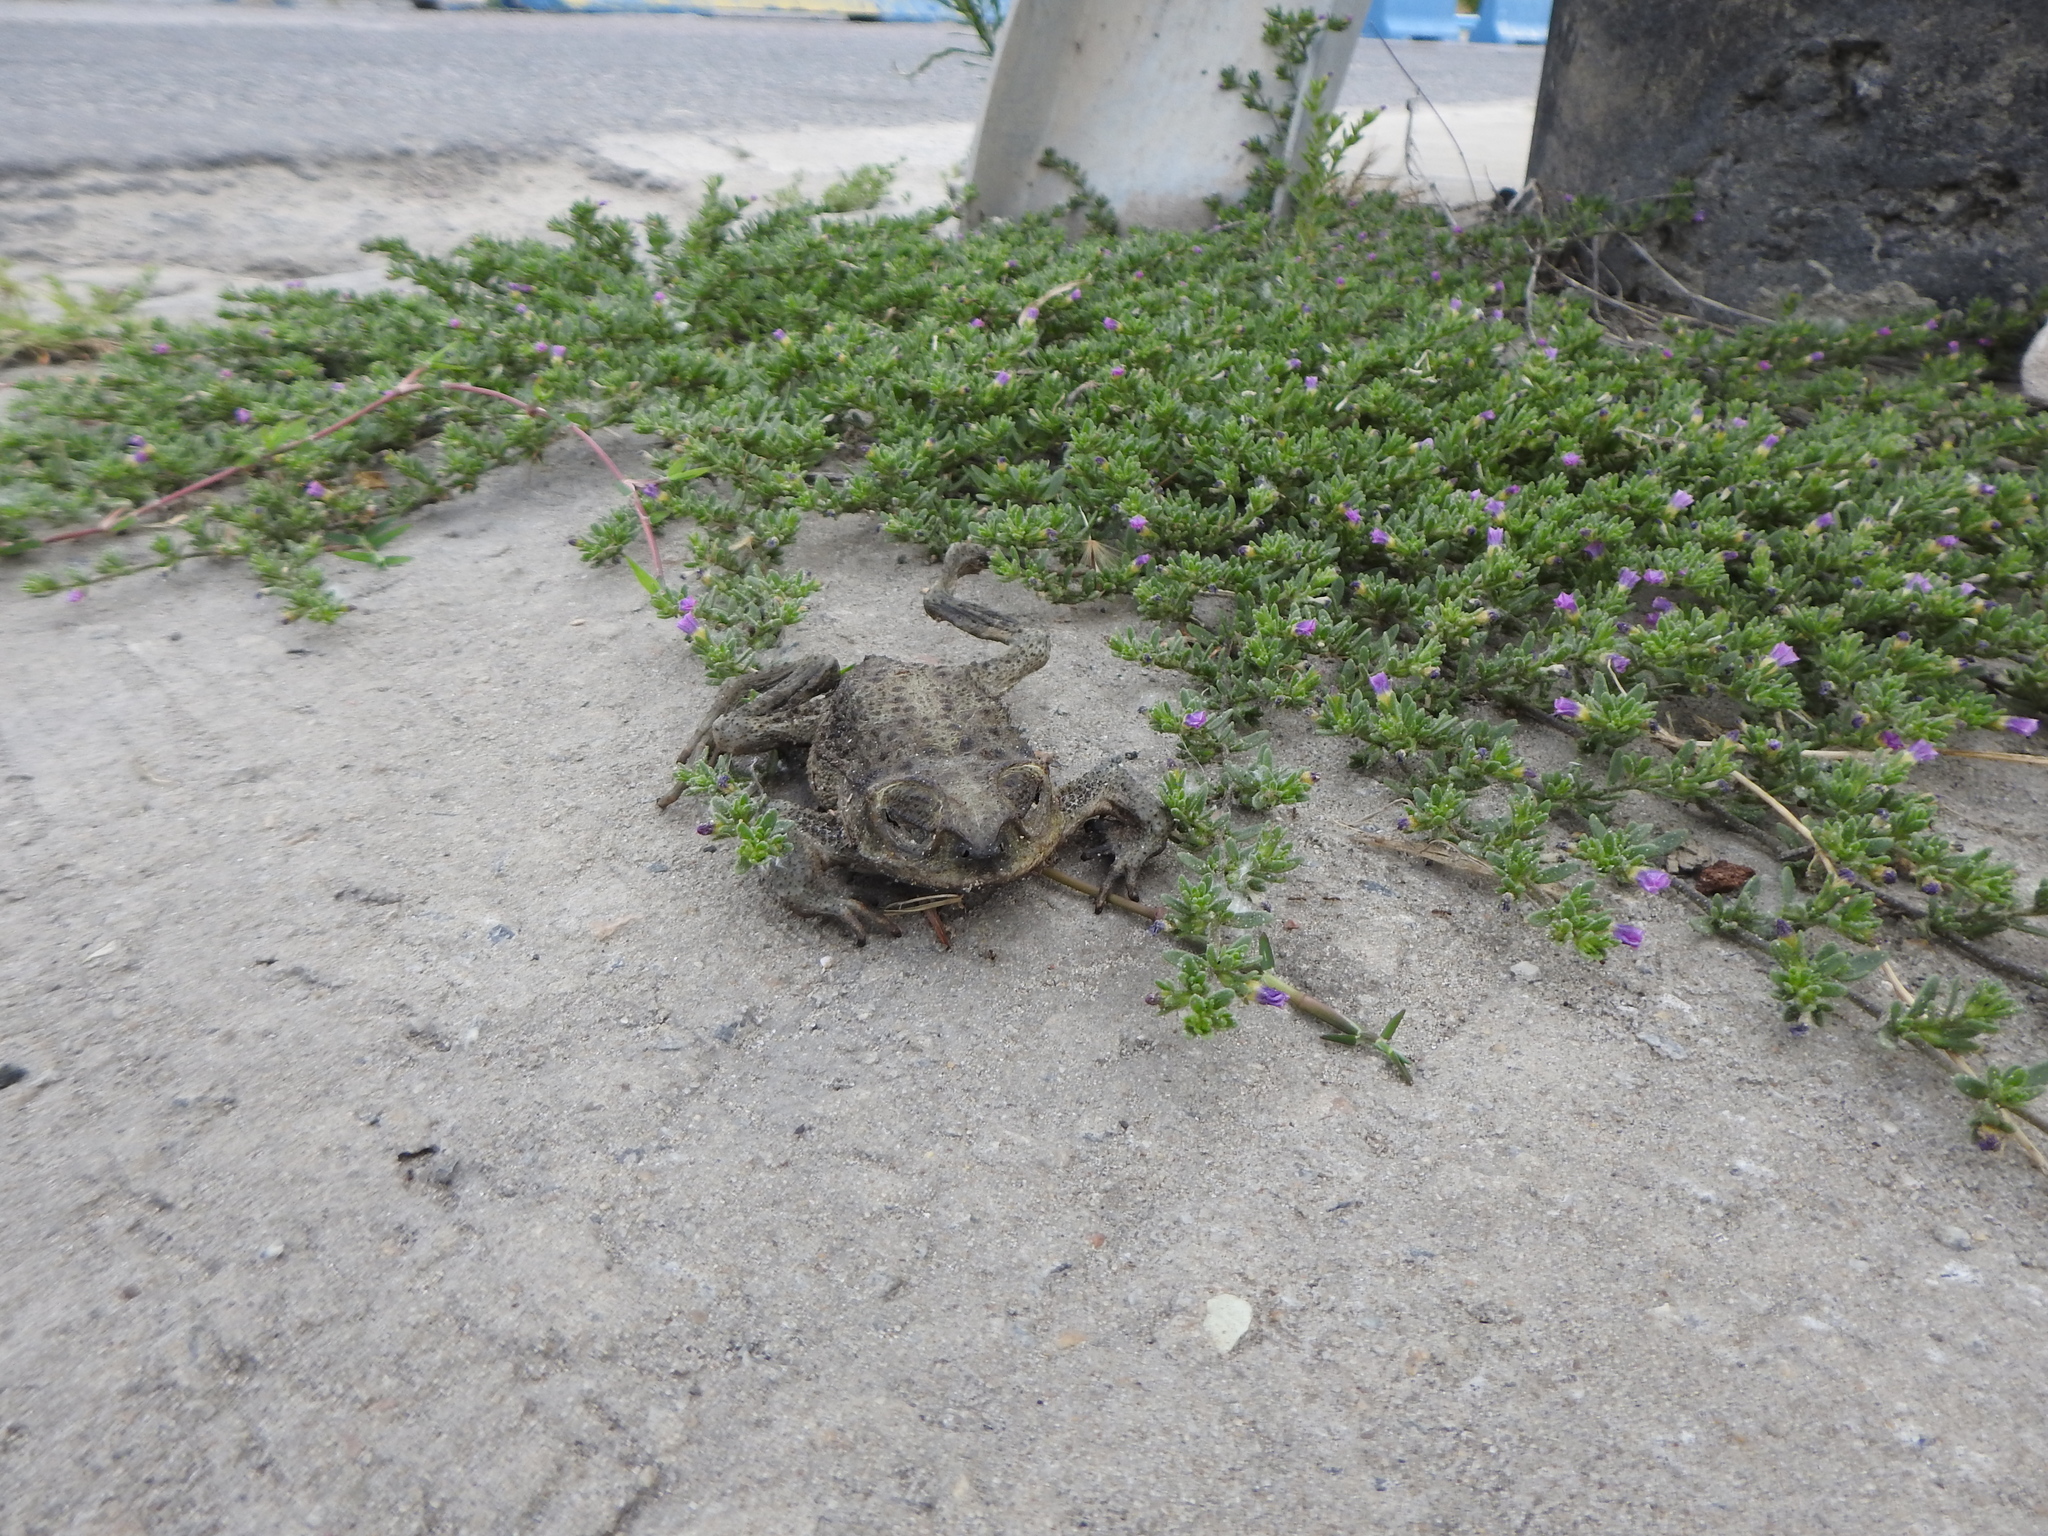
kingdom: Plantae
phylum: Tracheophyta
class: Magnoliopsida
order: Solanales
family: Solanaceae
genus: Calibrachoa
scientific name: Calibrachoa parviflora
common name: Seaside petunia
